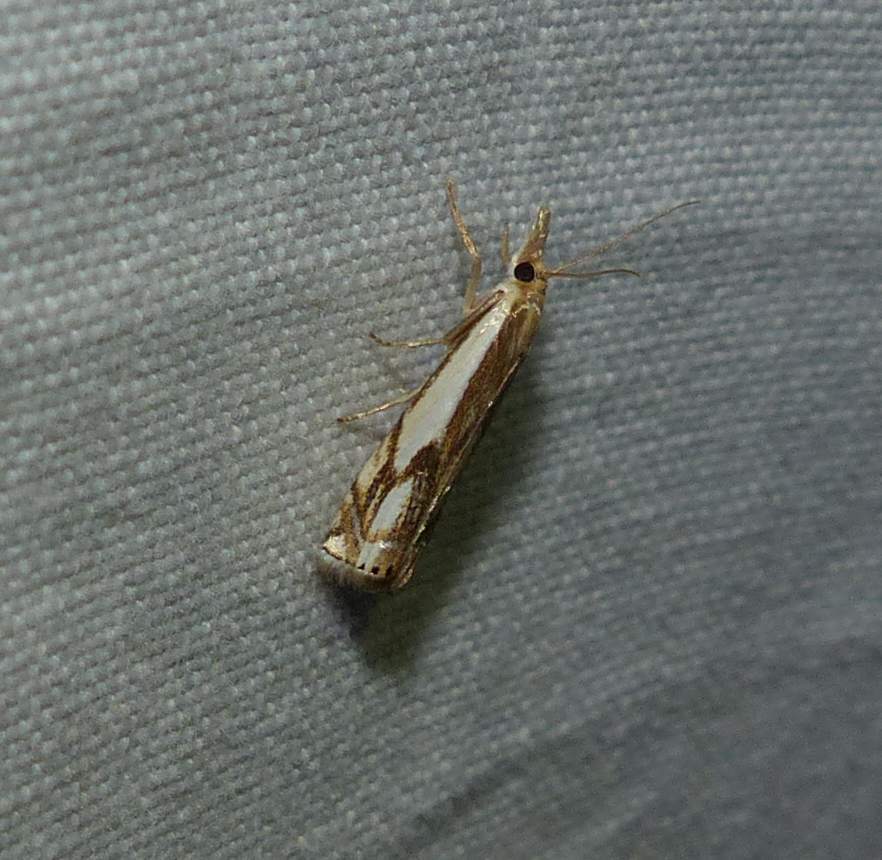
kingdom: Animalia
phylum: Arthropoda
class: Insecta
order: Lepidoptera
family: Crambidae
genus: Crambus
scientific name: Crambus agitatellus
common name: Double-banded grass-veneer
